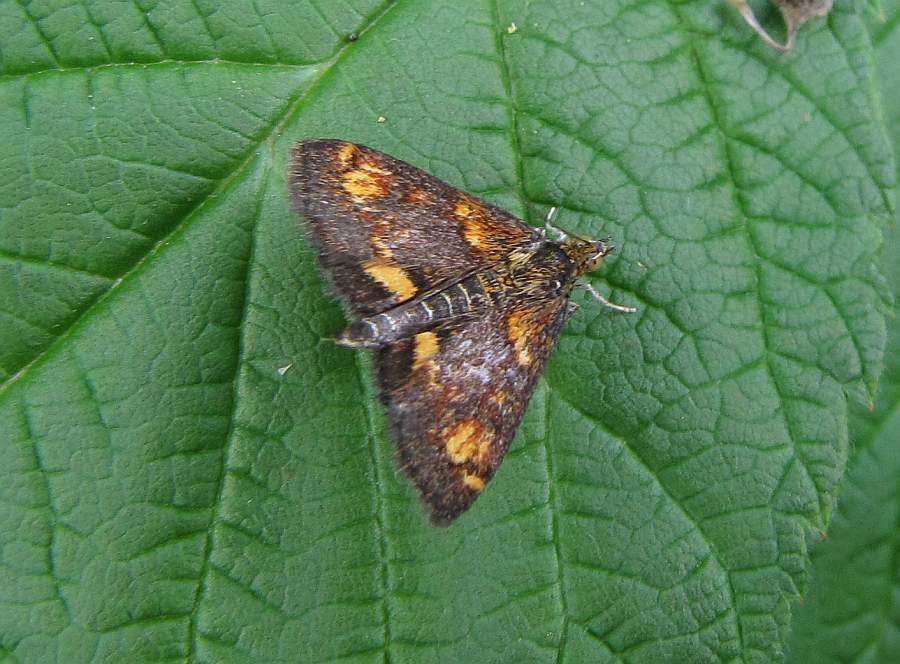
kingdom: Animalia
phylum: Arthropoda
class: Insecta
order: Lepidoptera
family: Crambidae
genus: Pyrausta
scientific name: Pyrausta orphisalis
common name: Orange mint moth
